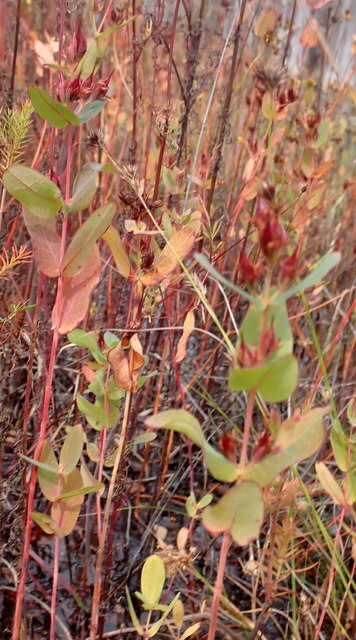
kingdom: Plantae
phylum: Tracheophyta
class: Magnoliopsida
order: Malpighiales
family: Hypericaceae
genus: Triadenum
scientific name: Triadenum virginicum
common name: Marsh st. john's-wort
